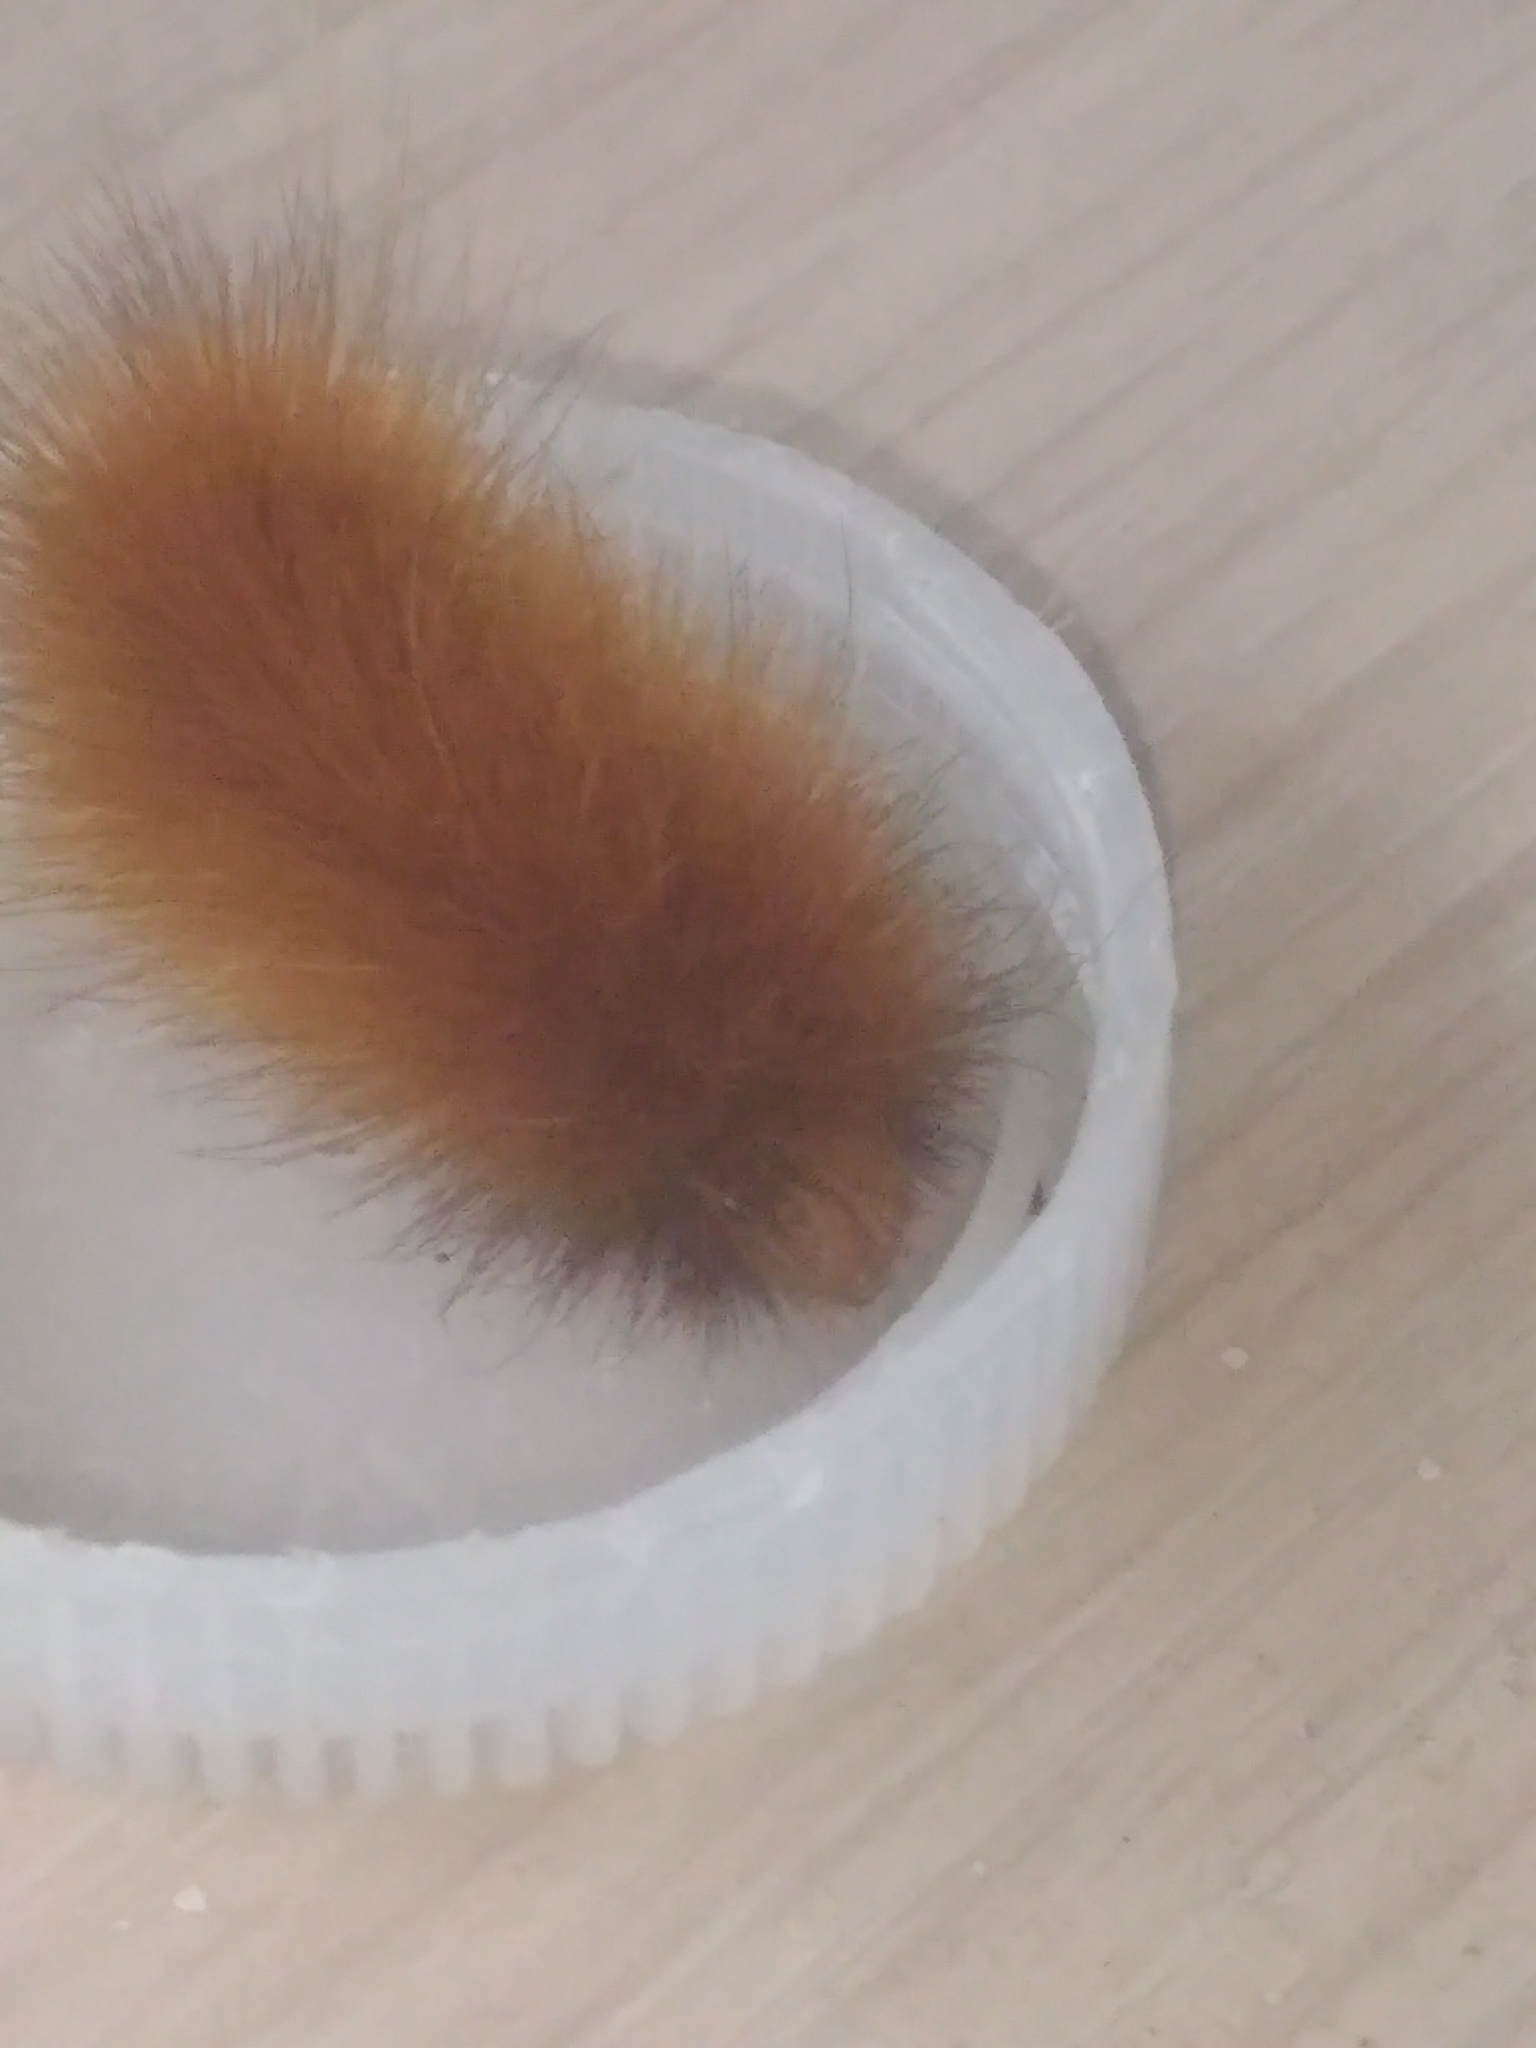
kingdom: Animalia
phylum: Arthropoda
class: Insecta
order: Lepidoptera
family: Erebidae
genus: Spilosoma
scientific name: Spilosoma virginica
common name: Virginia tiger moth
